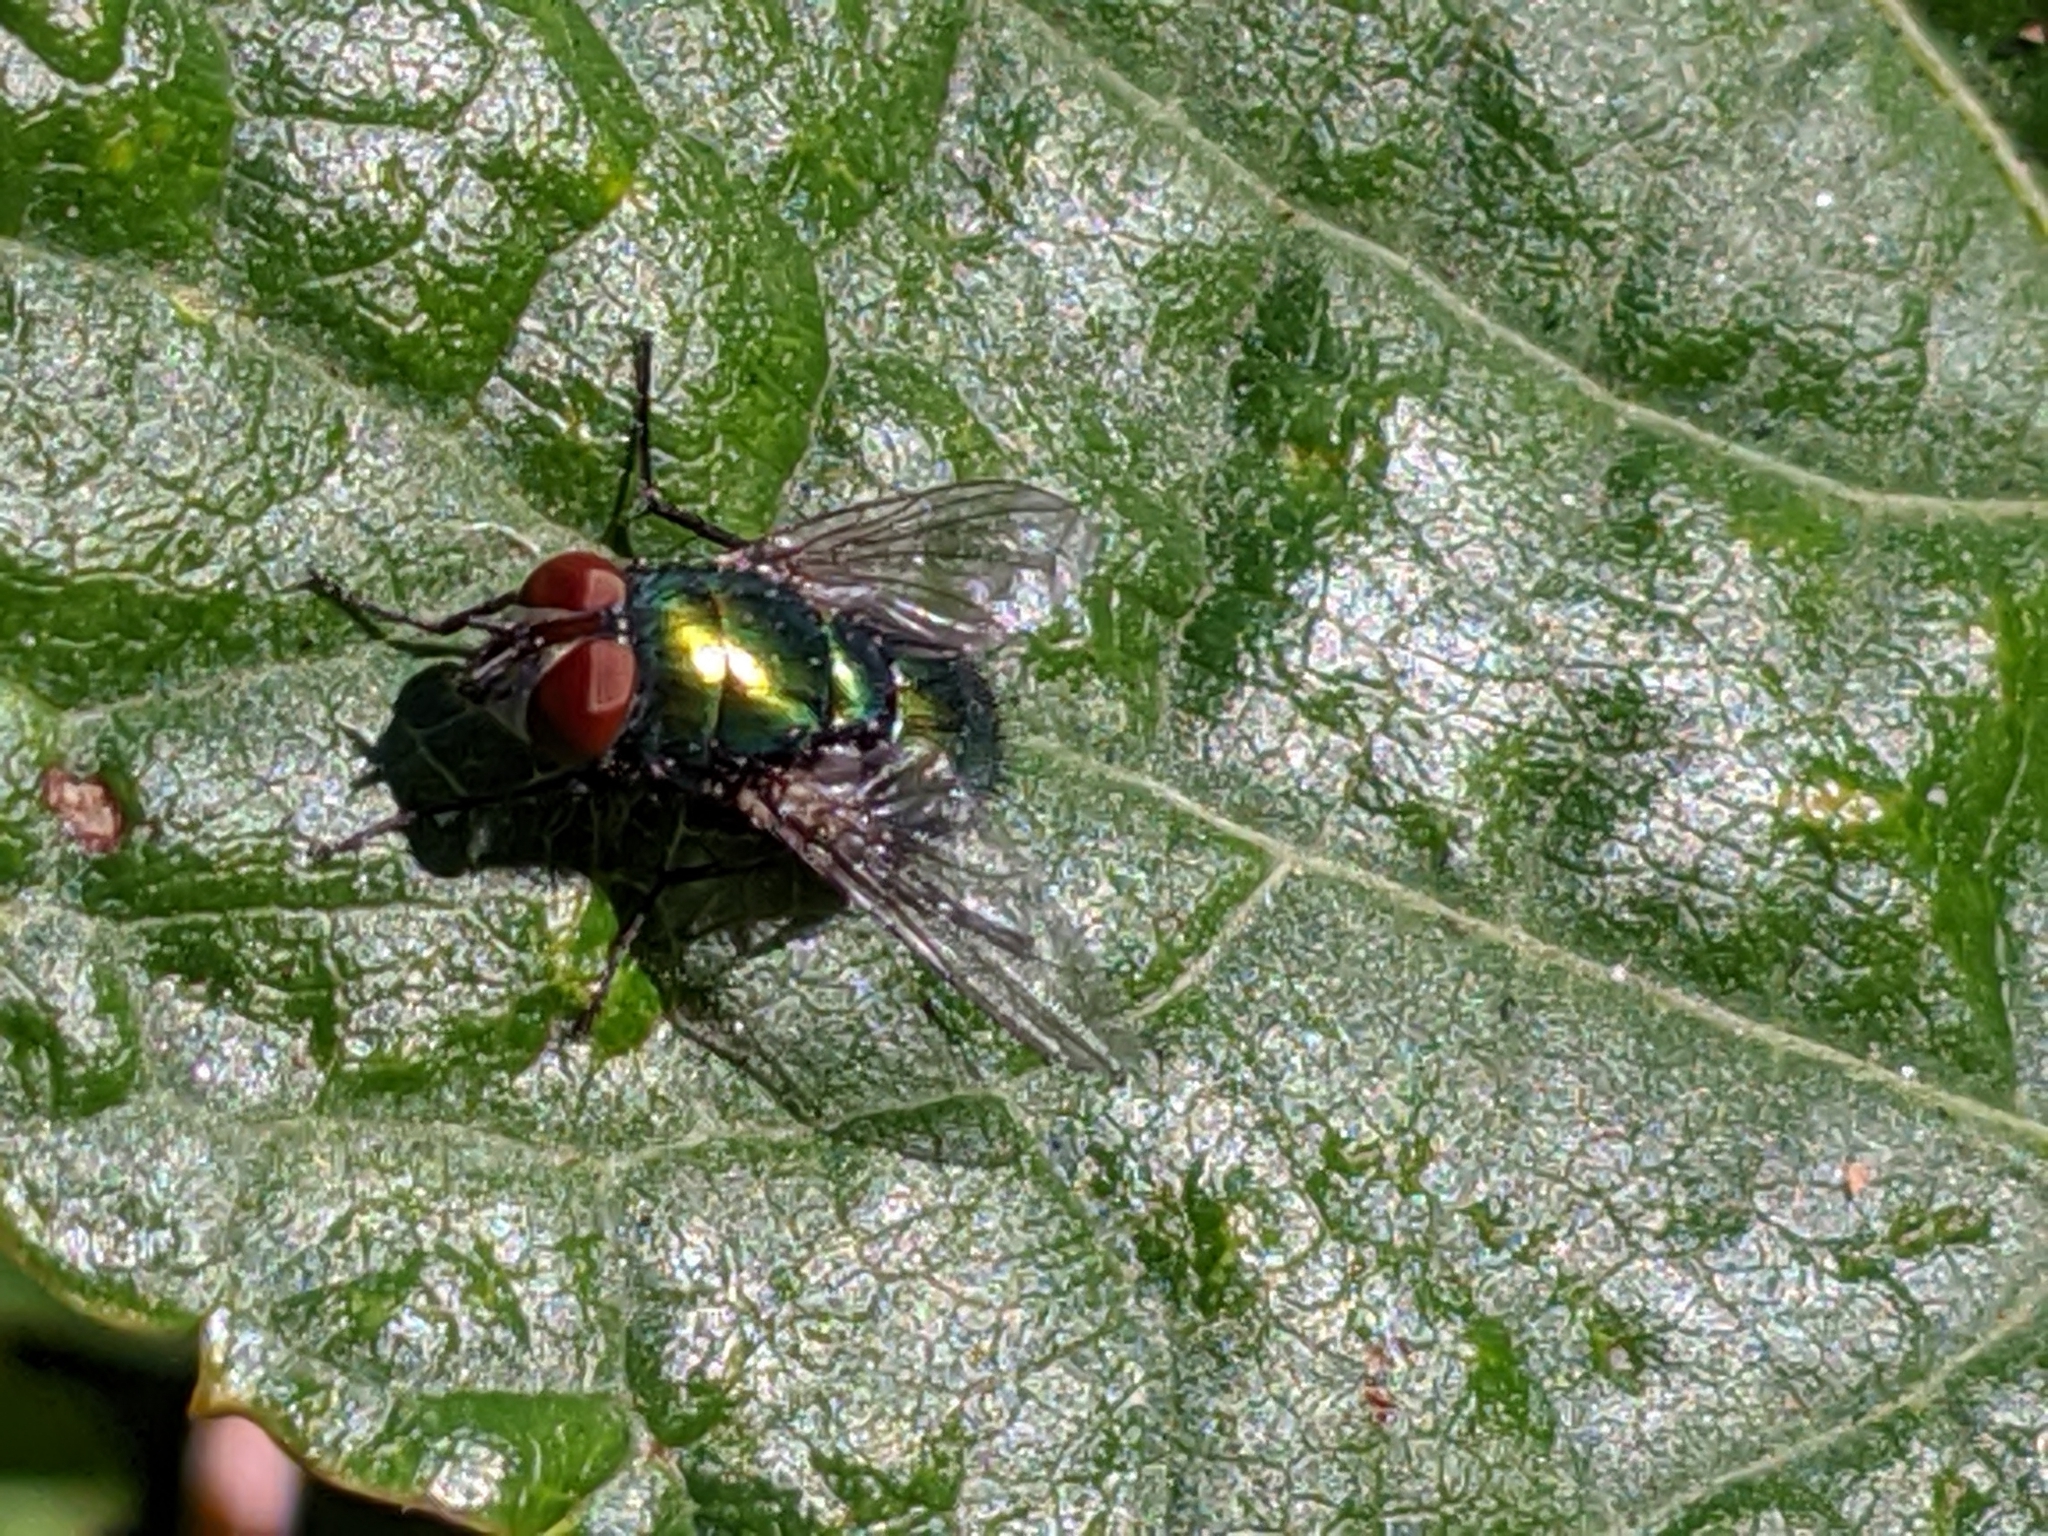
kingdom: Animalia
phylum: Arthropoda
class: Insecta
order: Diptera
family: Calliphoridae
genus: Lucilia
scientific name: Lucilia sericata
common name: Blow fly
